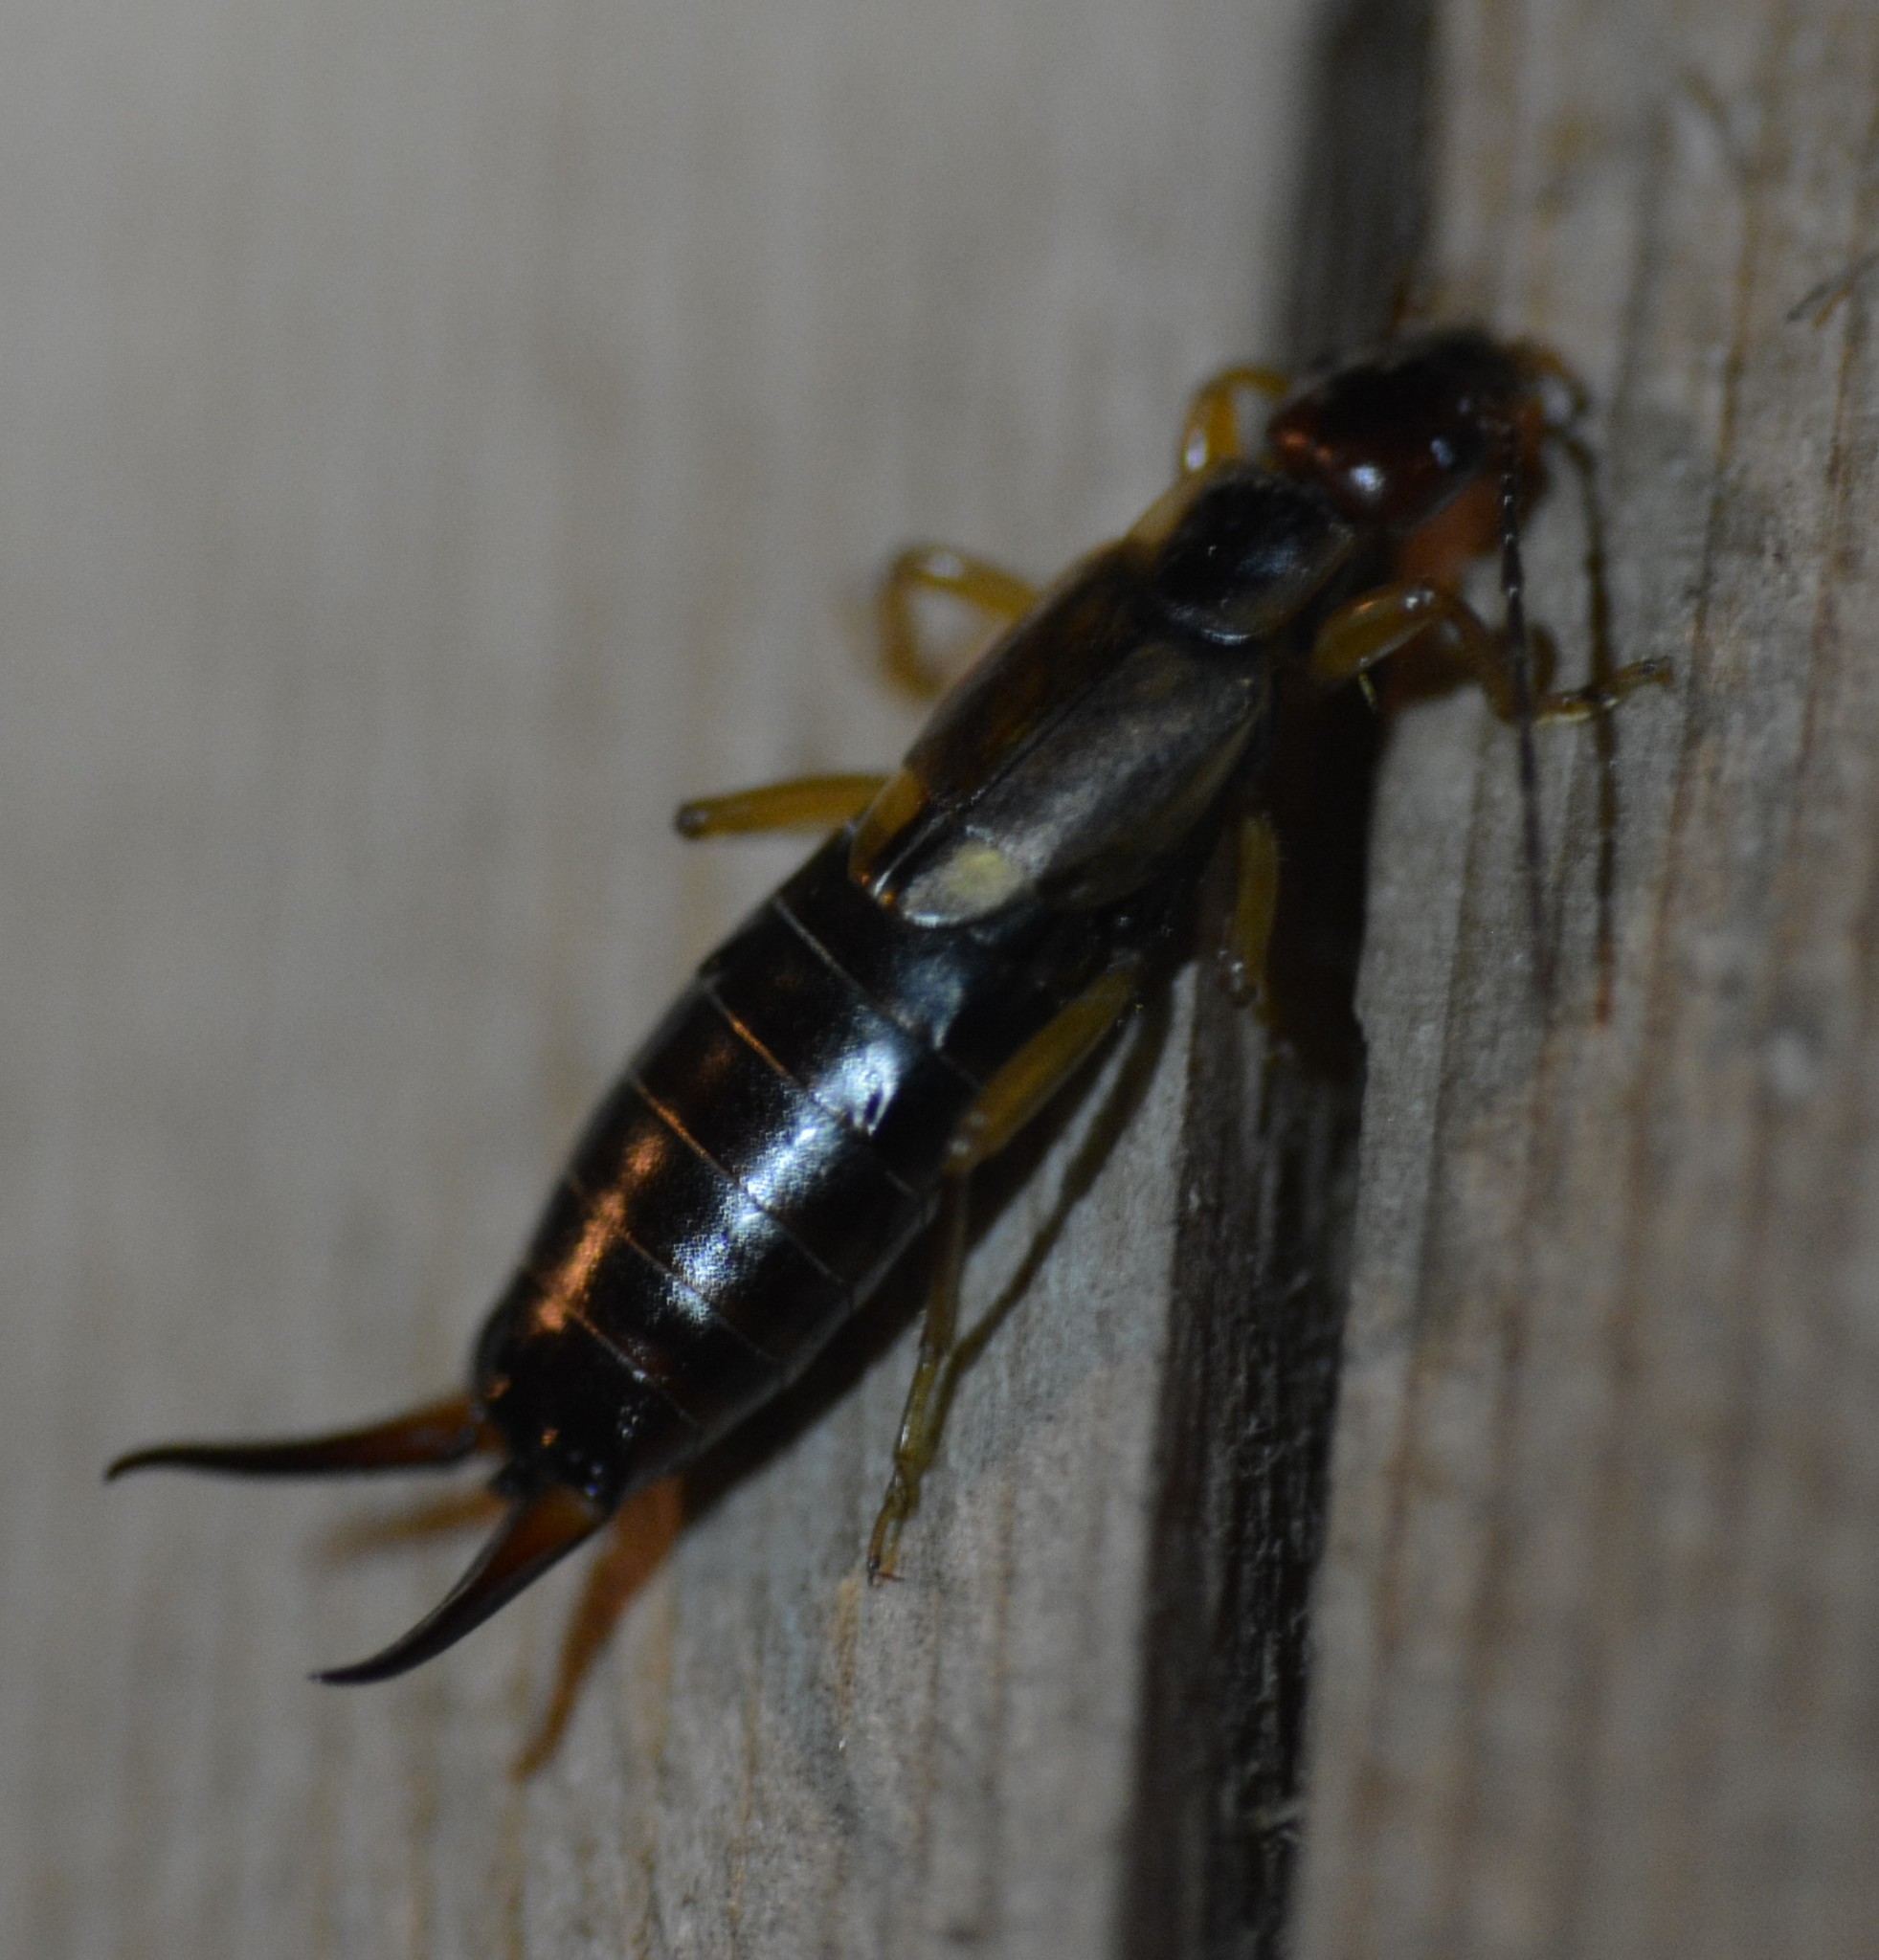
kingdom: Animalia
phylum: Arthropoda
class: Insecta
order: Dermaptera
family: Forficulidae
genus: Forficula
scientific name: Forficula
